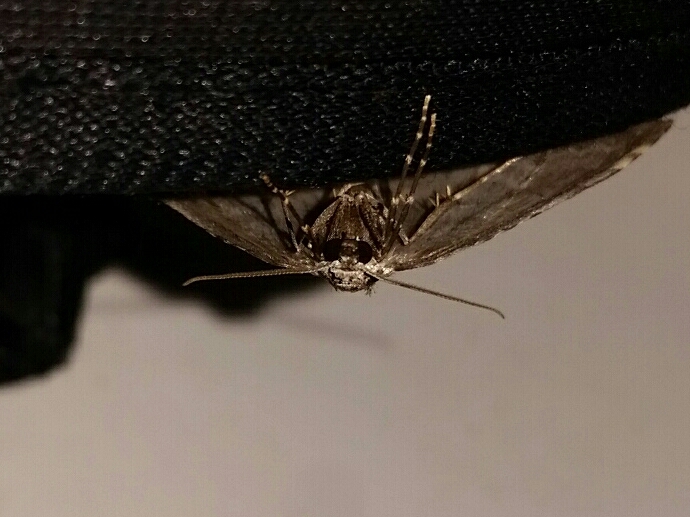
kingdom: Animalia
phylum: Arthropoda
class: Insecta
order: Lepidoptera
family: Geometridae
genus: Epirrita
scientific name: Epirrita autumnata
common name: Autumnal moth
